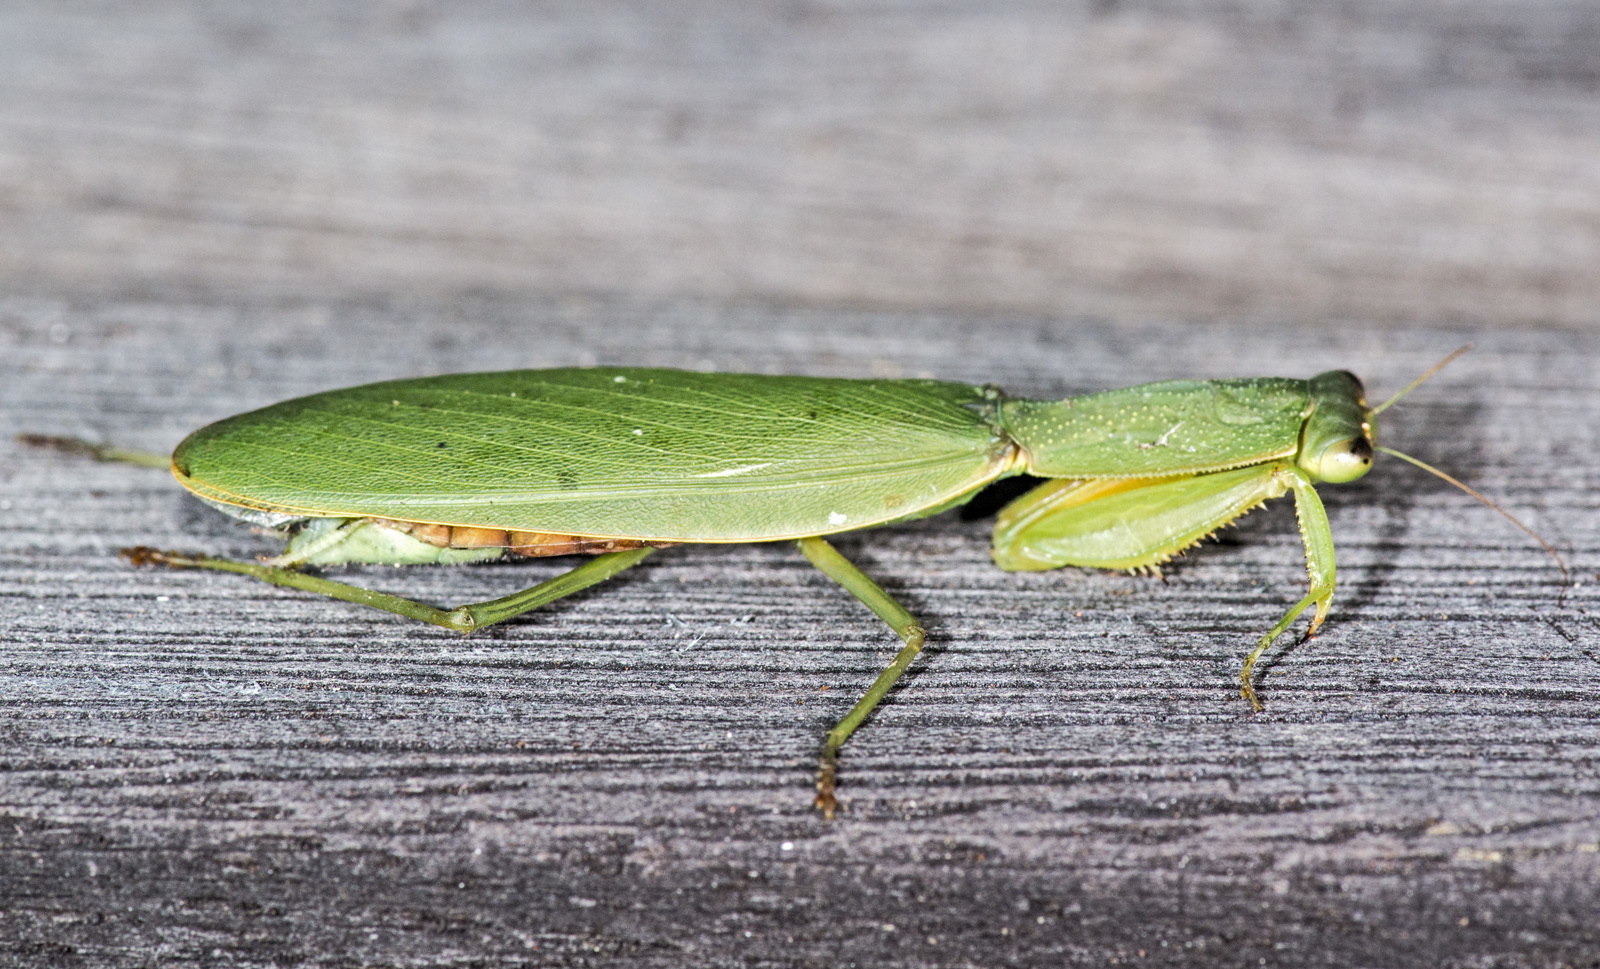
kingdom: Animalia
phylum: Arthropoda
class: Insecta
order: Mantodea
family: Mantidae
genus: Orthodera
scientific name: Orthodera novaezealandiae
